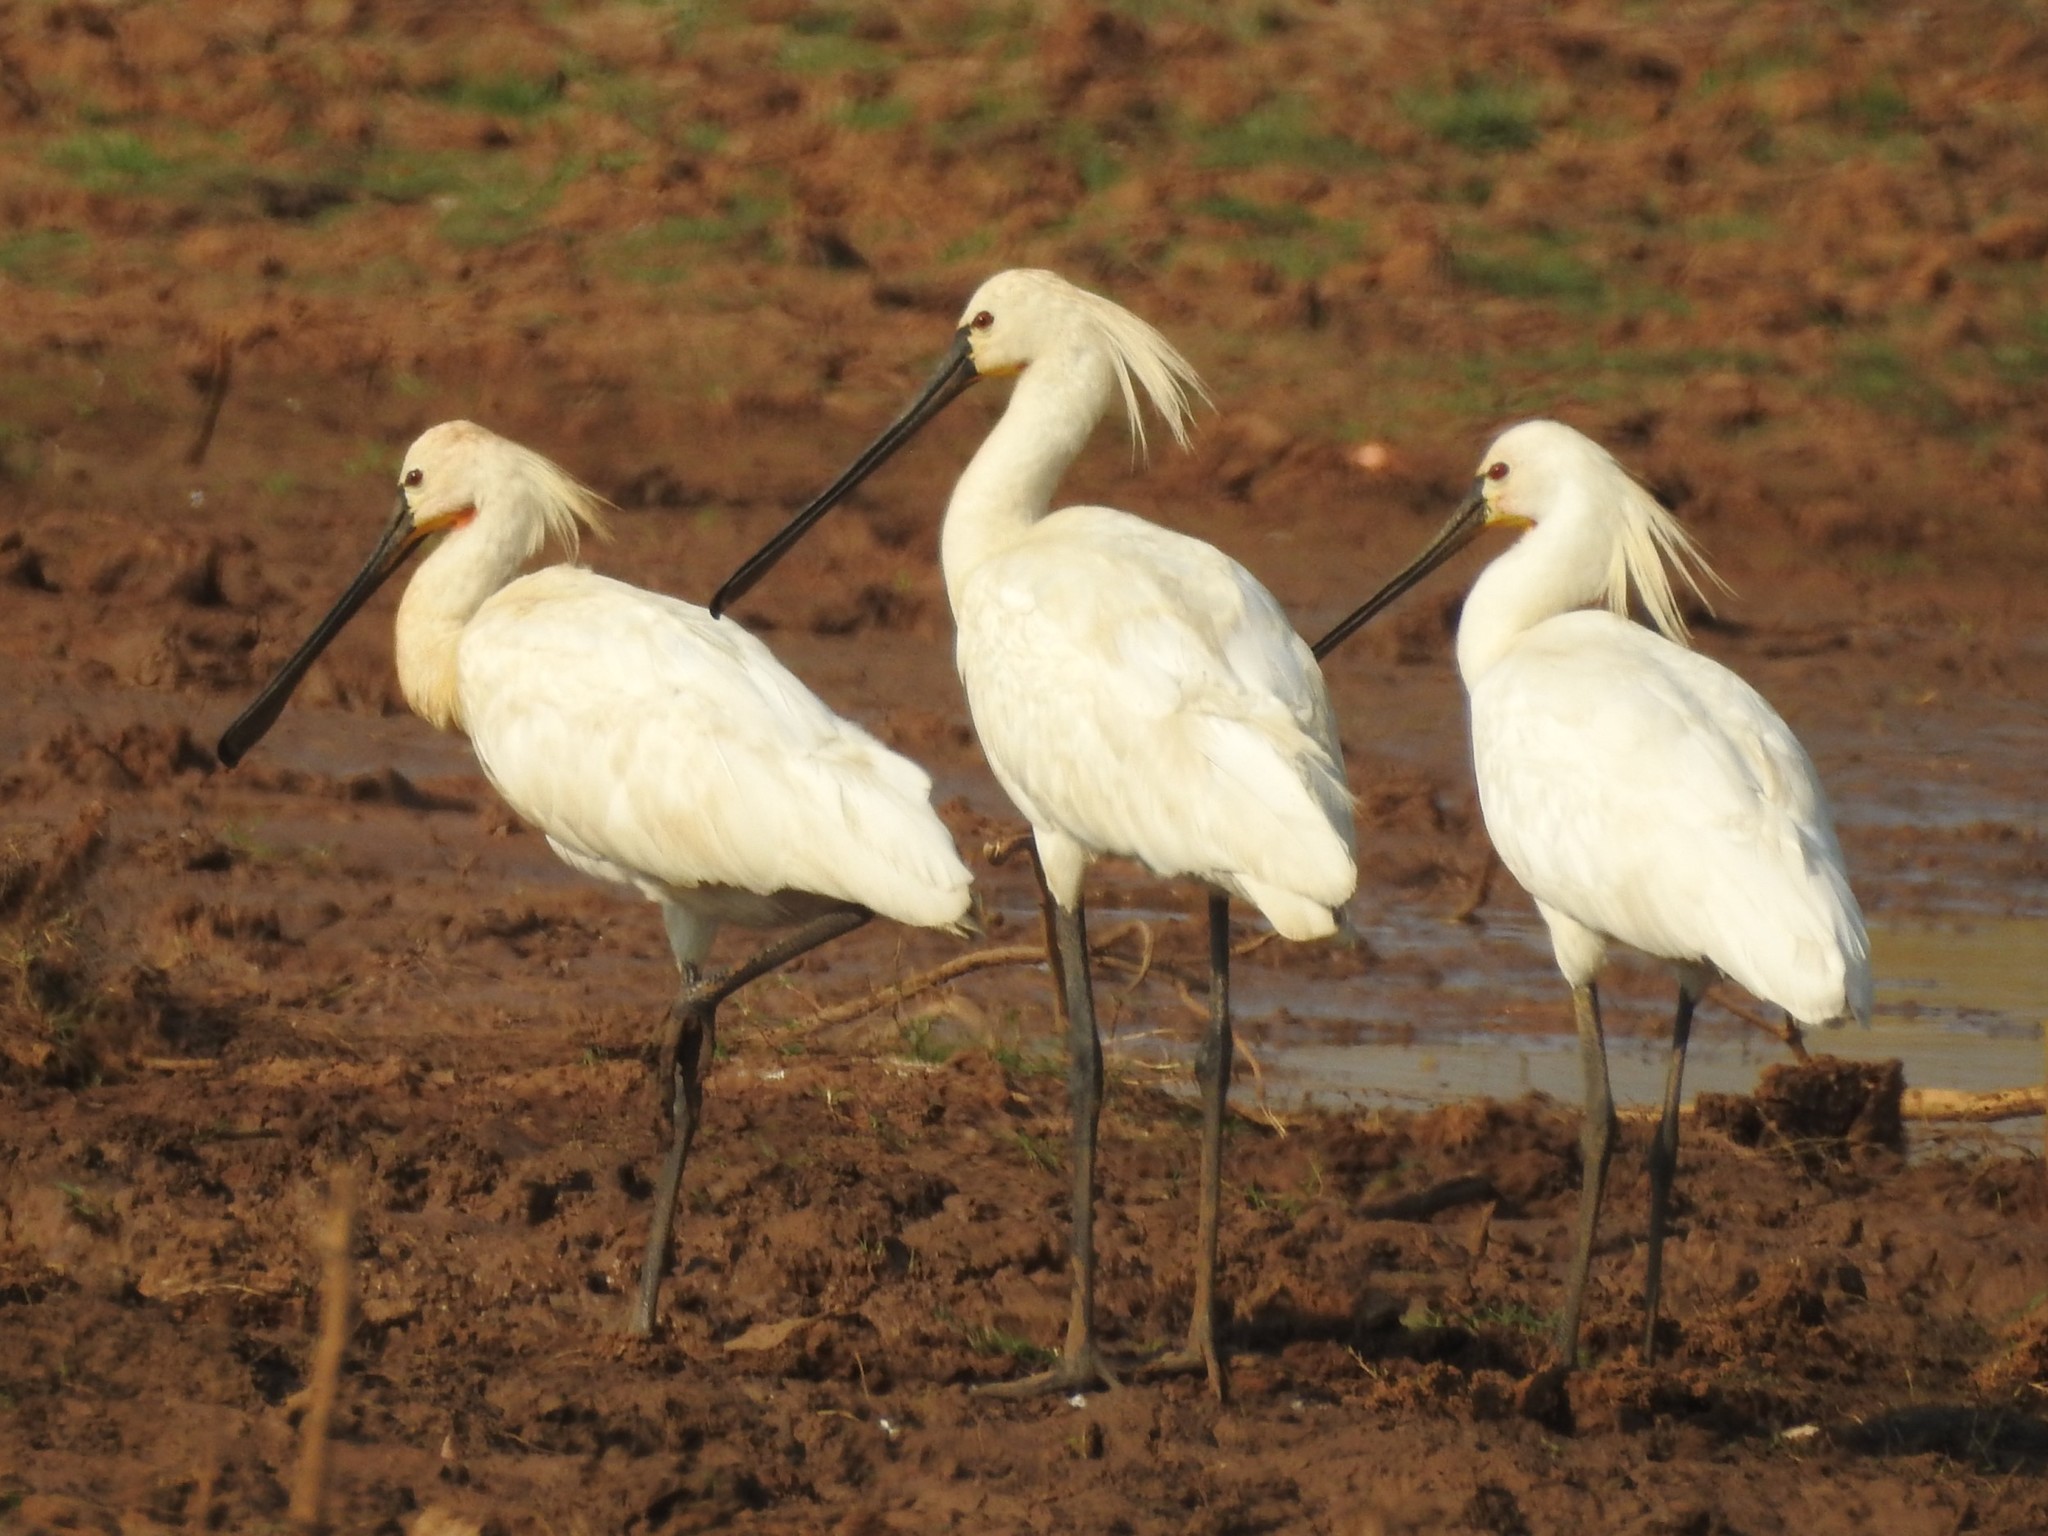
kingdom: Animalia
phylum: Chordata
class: Aves
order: Pelecaniformes
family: Threskiornithidae
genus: Platalea
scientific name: Platalea leucorodia
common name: Eurasian spoonbill
